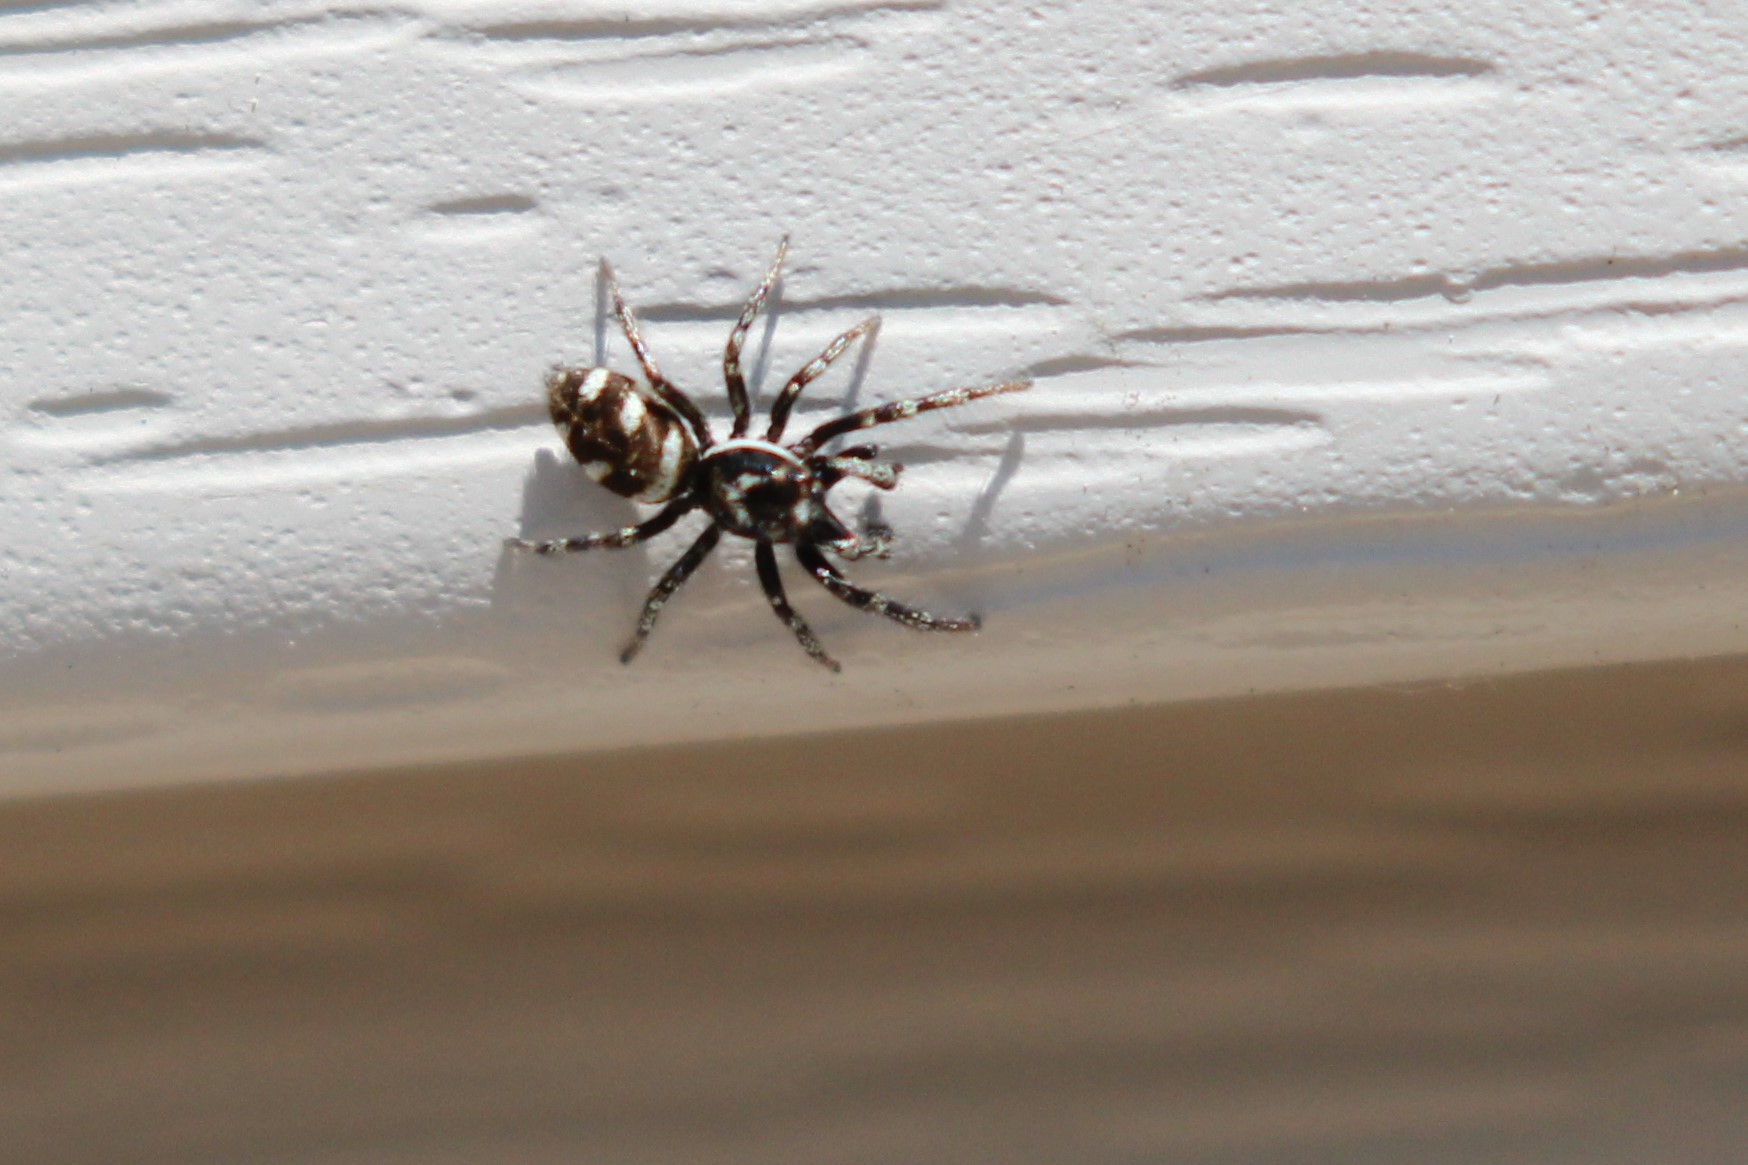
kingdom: Animalia
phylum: Arthropoda
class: Arachnida
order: Araneae
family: Salticidae
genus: Salticus
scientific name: Salticus scenicus
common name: Zebra jumper
